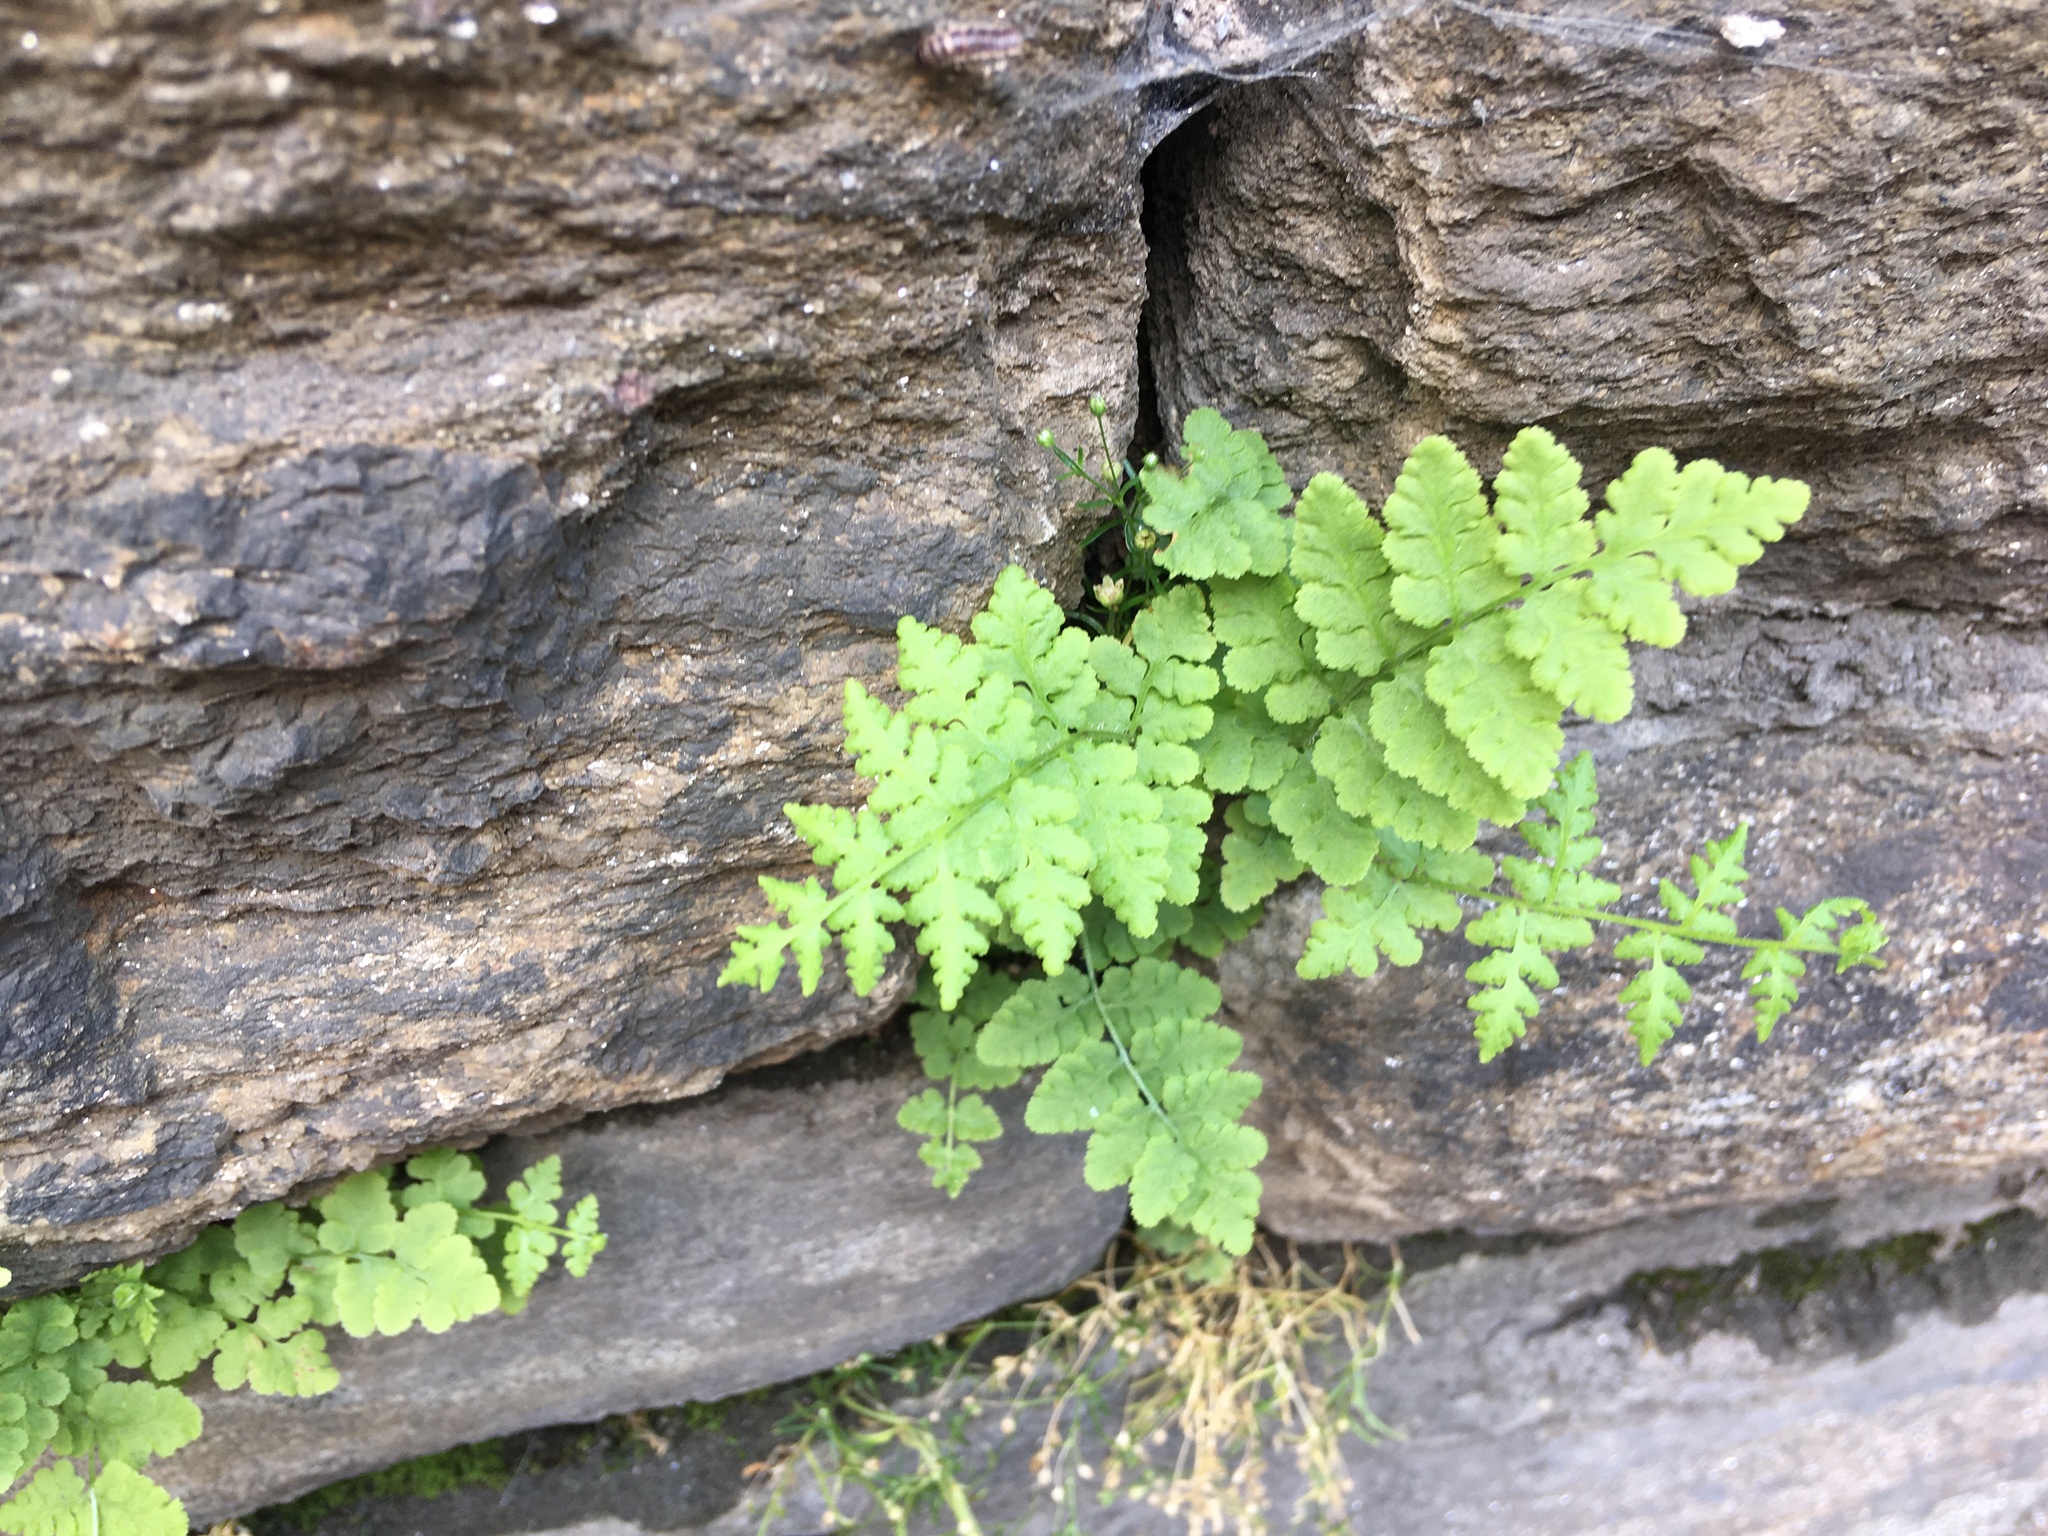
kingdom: Plantae
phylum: Tracheophyta
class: Polypodiopsida
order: Polypodiales
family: Woodsiaceae
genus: Physematium
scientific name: Physematium obtusum
